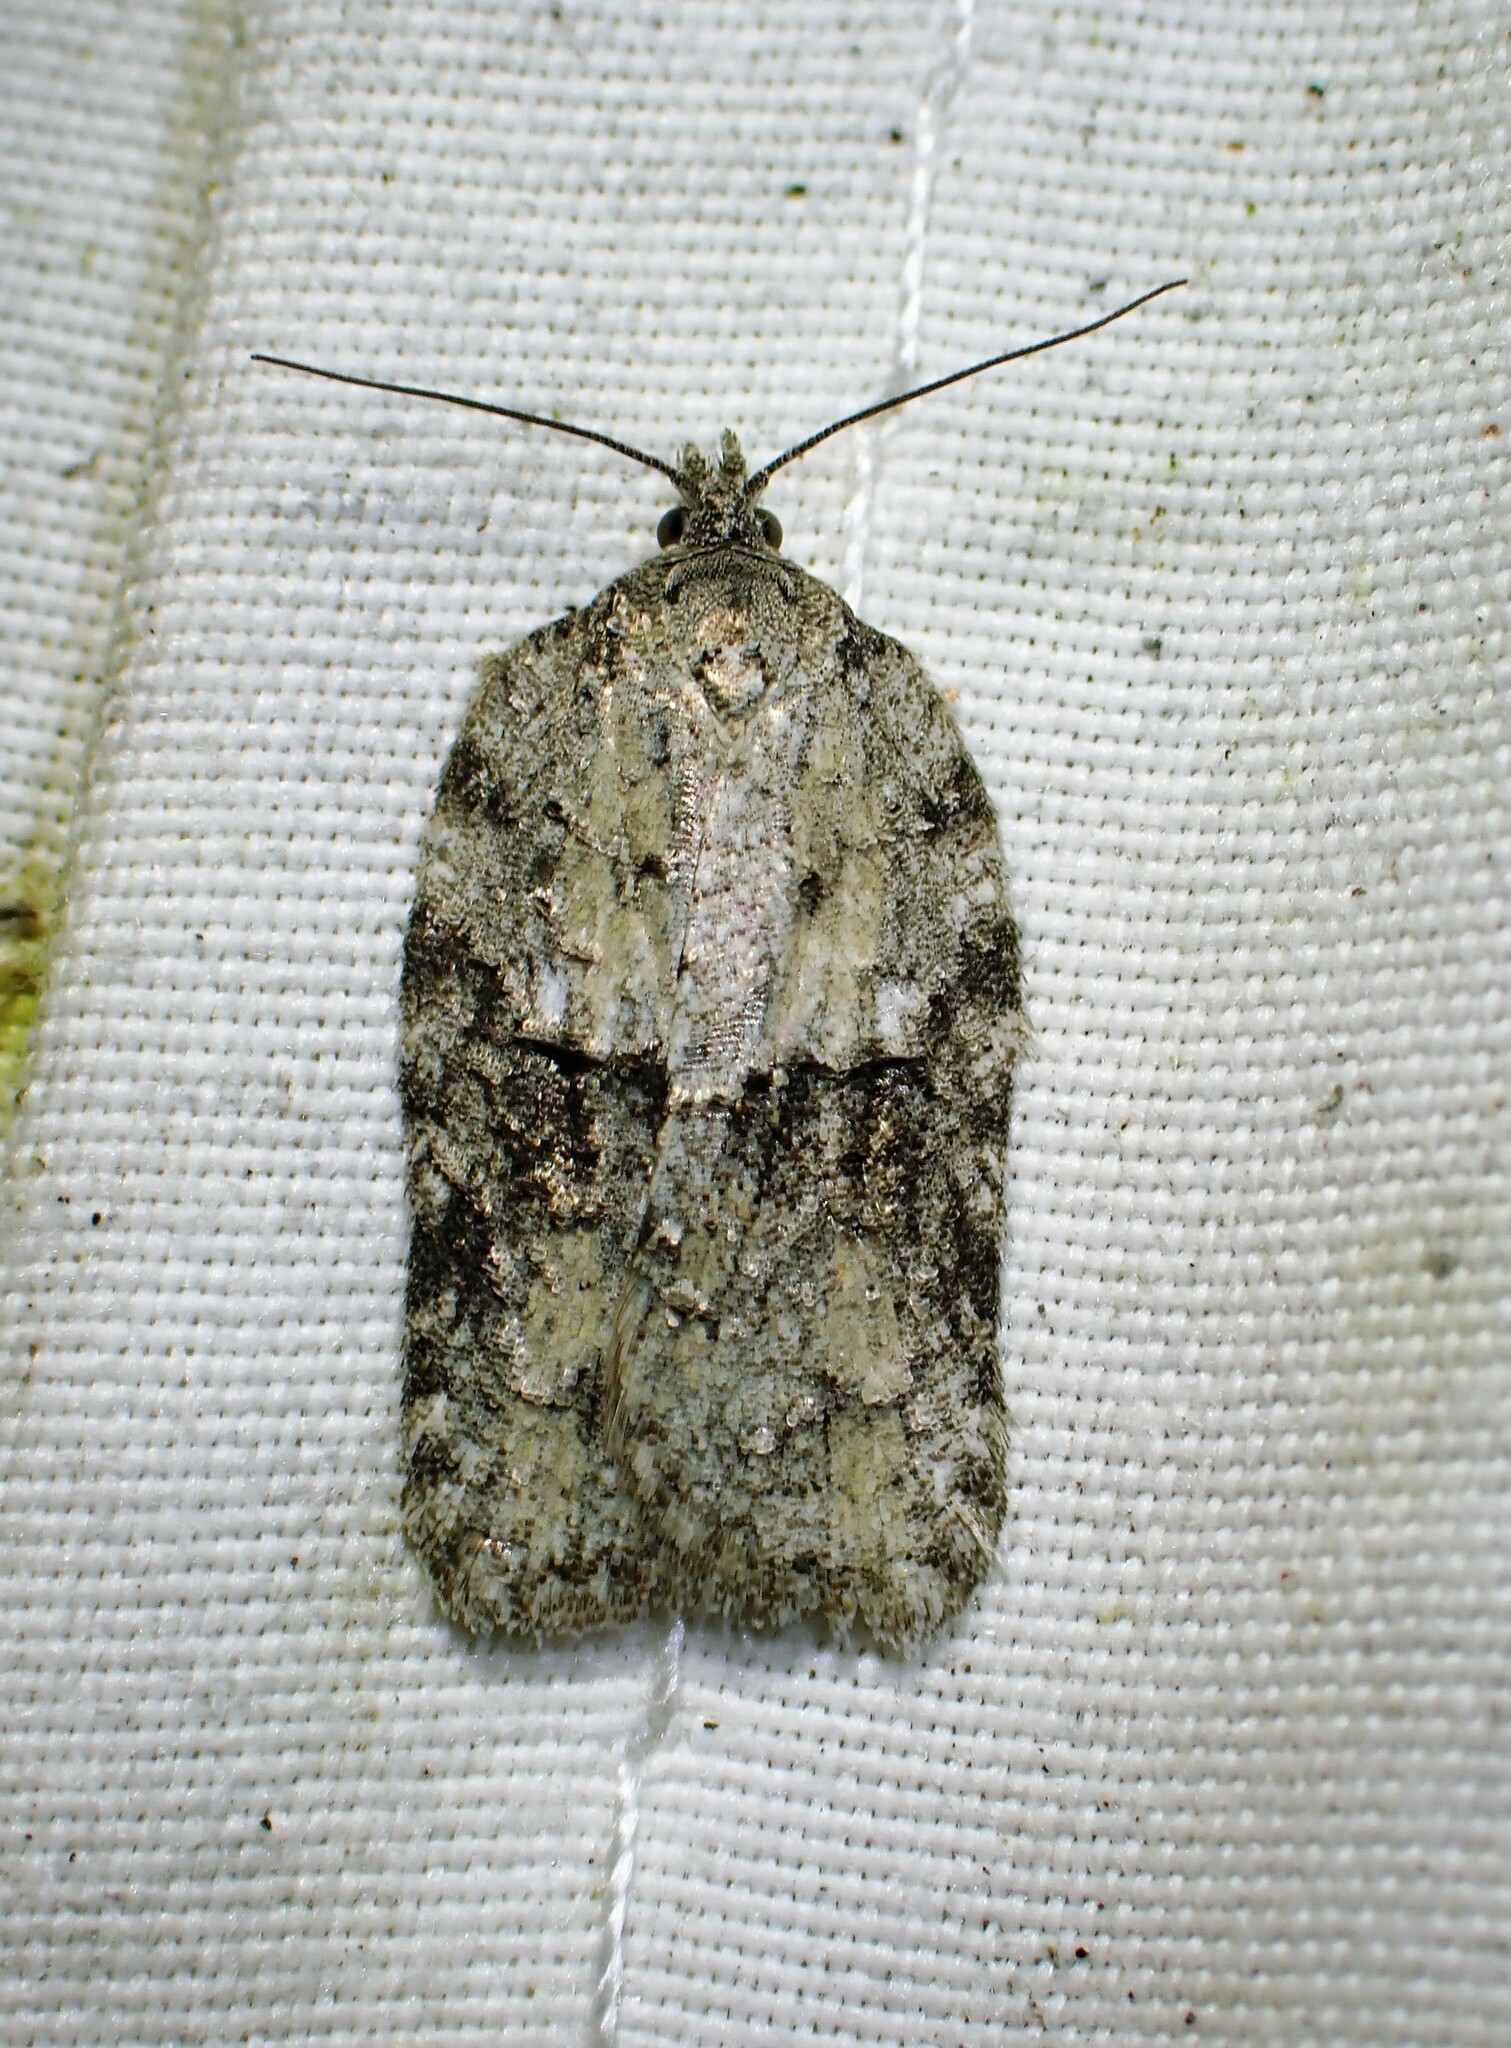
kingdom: Animalia
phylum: Arthropoda
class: Insecta
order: Lepidoptera
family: Tortricidae
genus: Acleris
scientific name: Acleris nigrolinea
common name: Black-lined acleris
